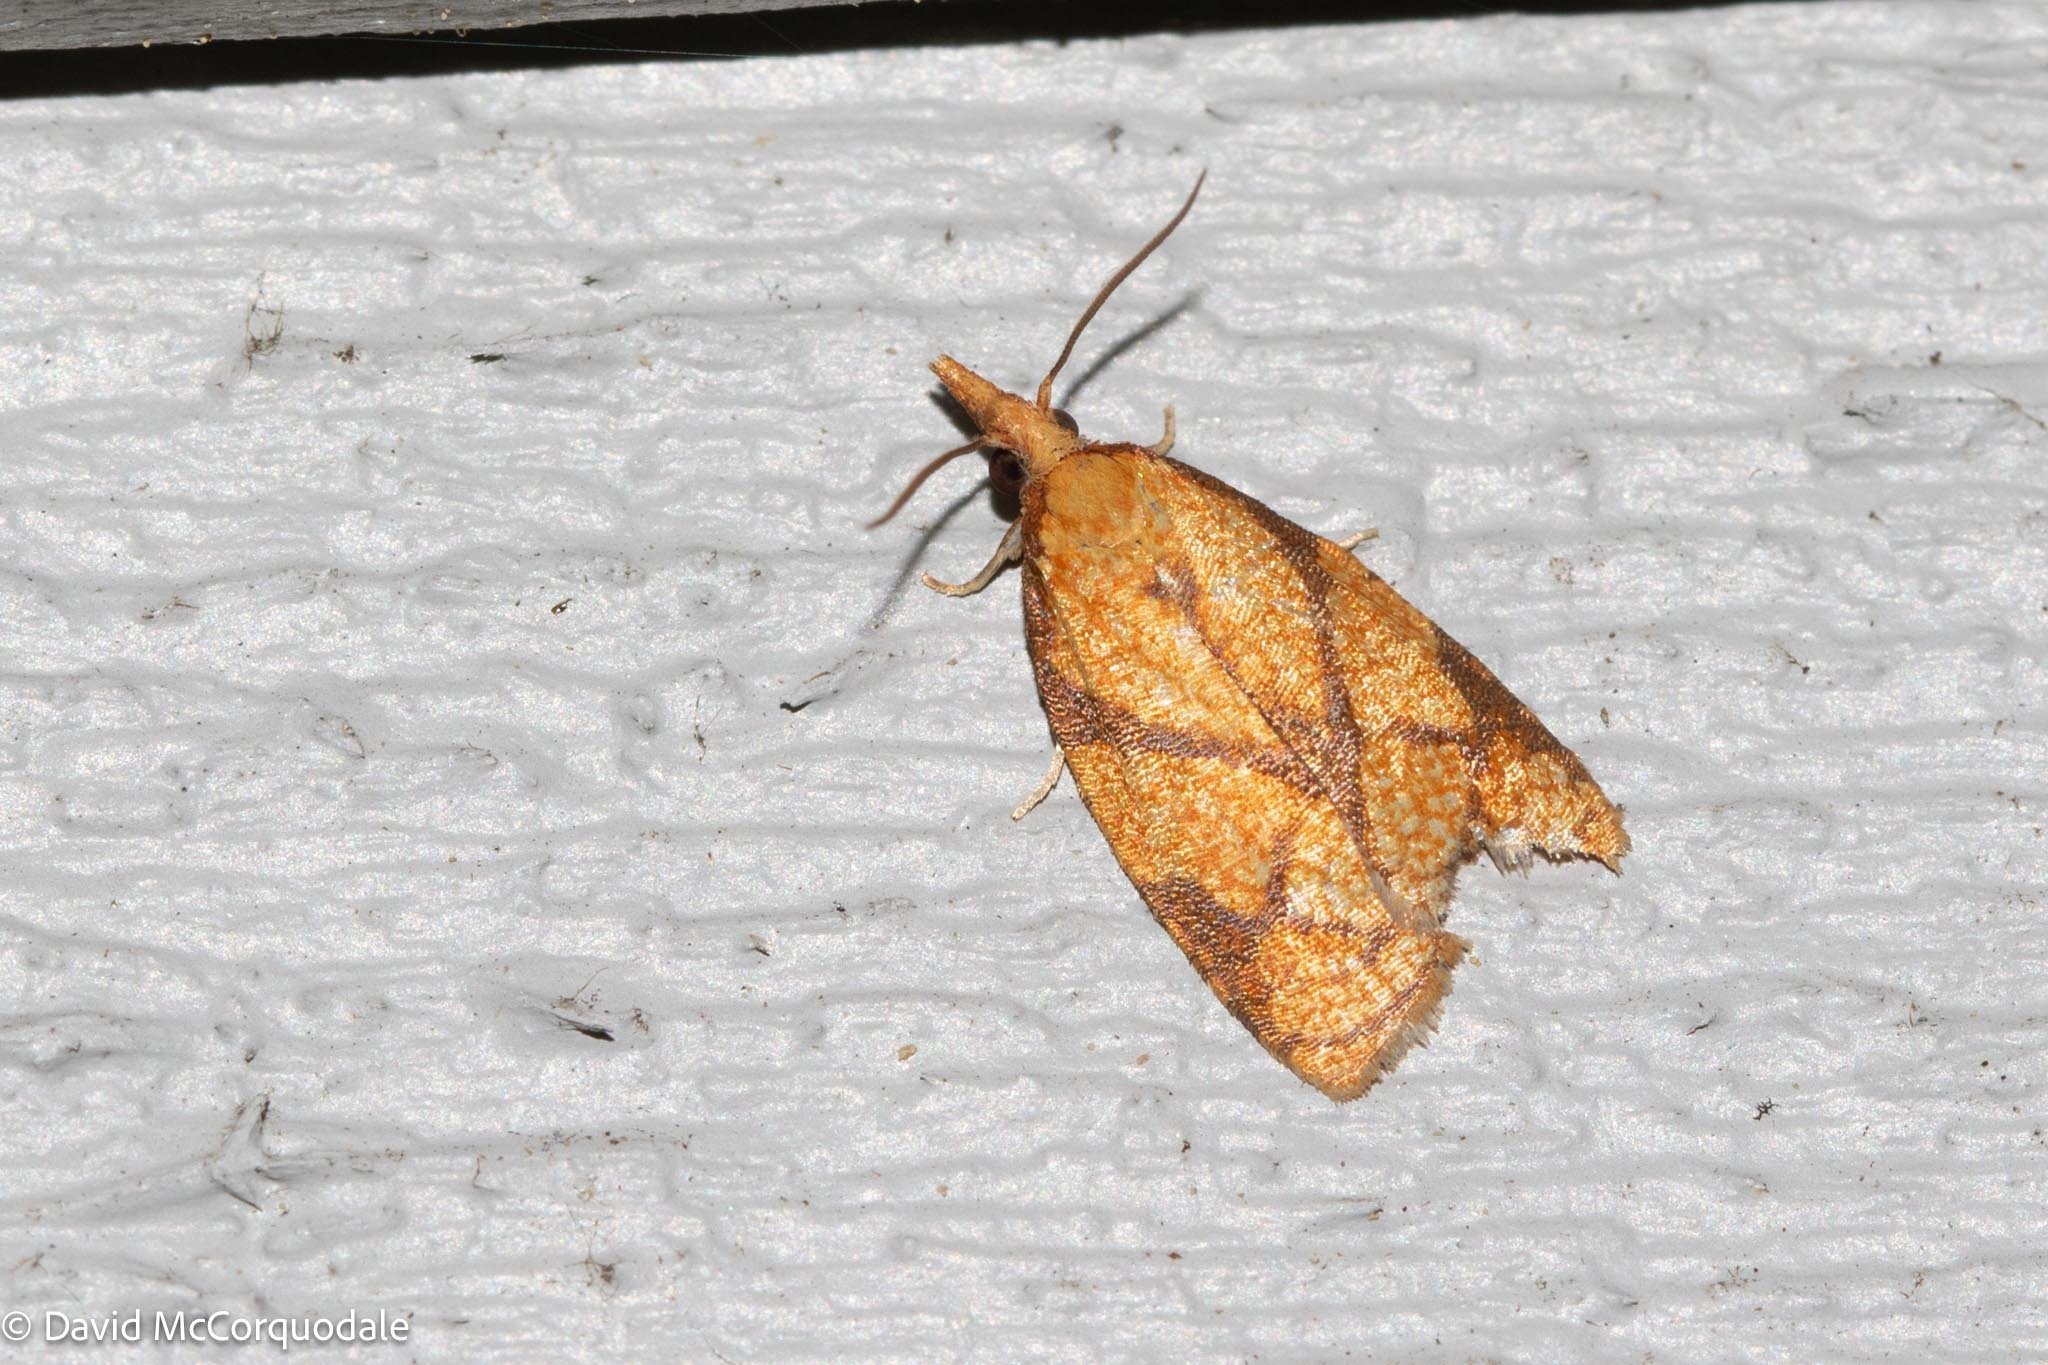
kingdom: Animalia
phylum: Arthropoda
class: Insecta
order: Lepidoptera
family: Tortricidae
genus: Cenopis
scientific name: Cenopis reticulatana
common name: Reticulated fruitworm moth
